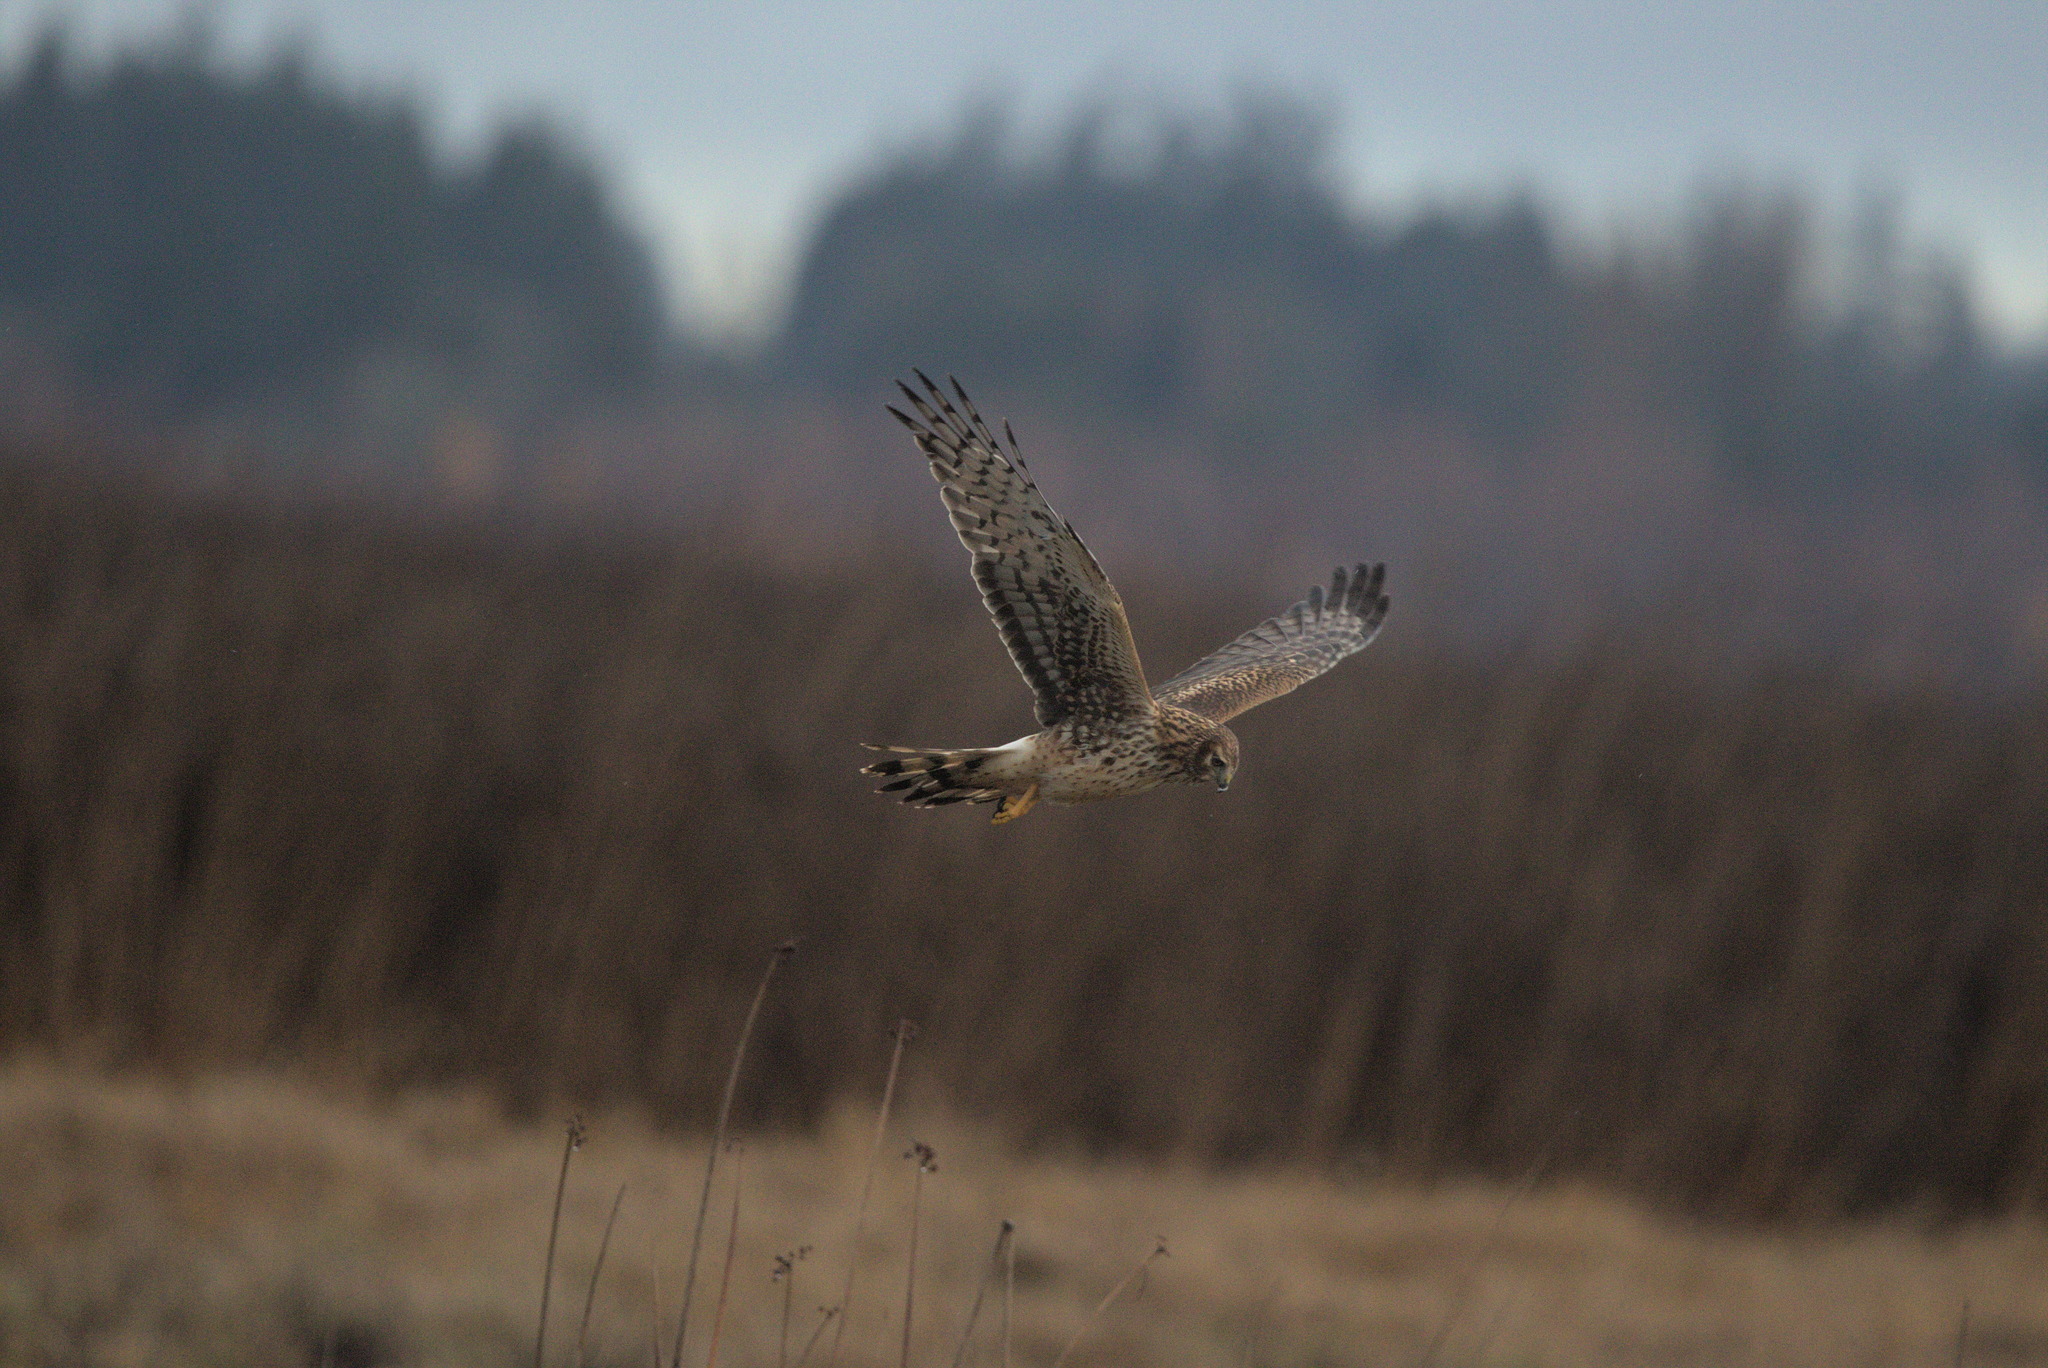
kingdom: Animalia
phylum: Chordata
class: Aves
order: Accipitriformes
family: Accipitridae
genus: Circus
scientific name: Circus cyaneus
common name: Hen harrier
